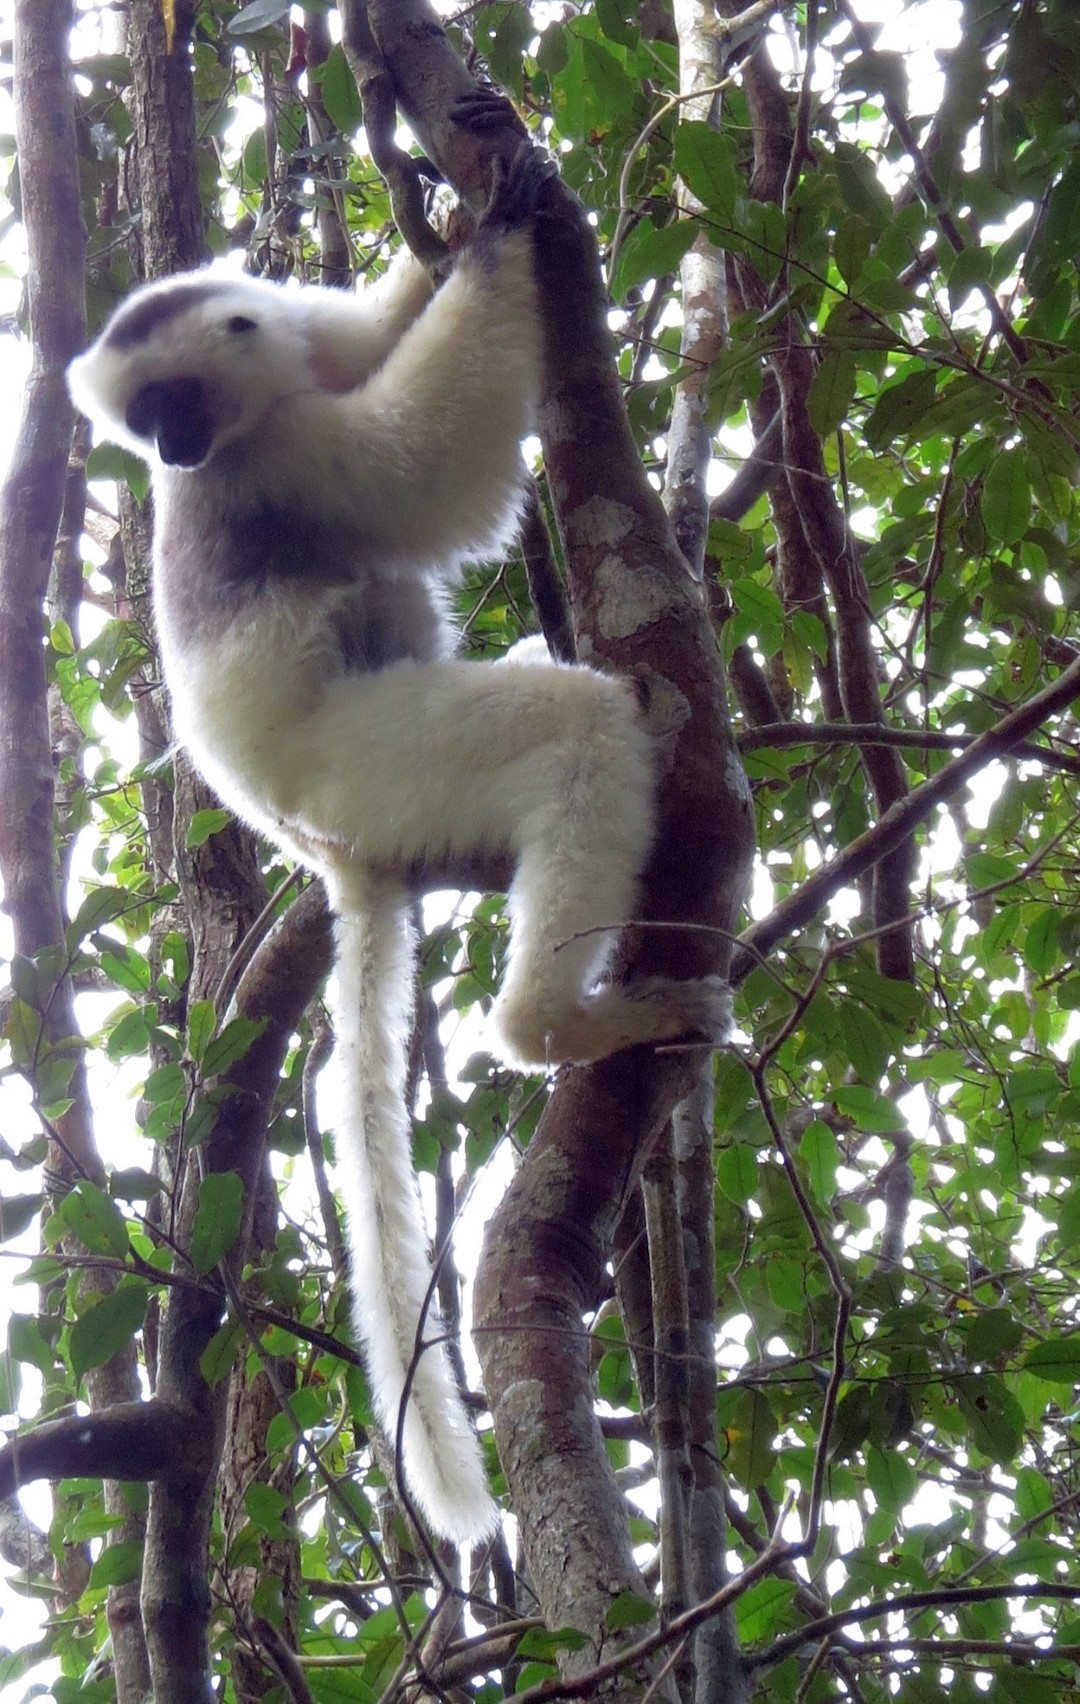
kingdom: Animalia
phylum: Chordata
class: Mammalia
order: Primates
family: Indriidae
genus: Propithecus
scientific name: Propithecus candidus
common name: Silky sifaka
